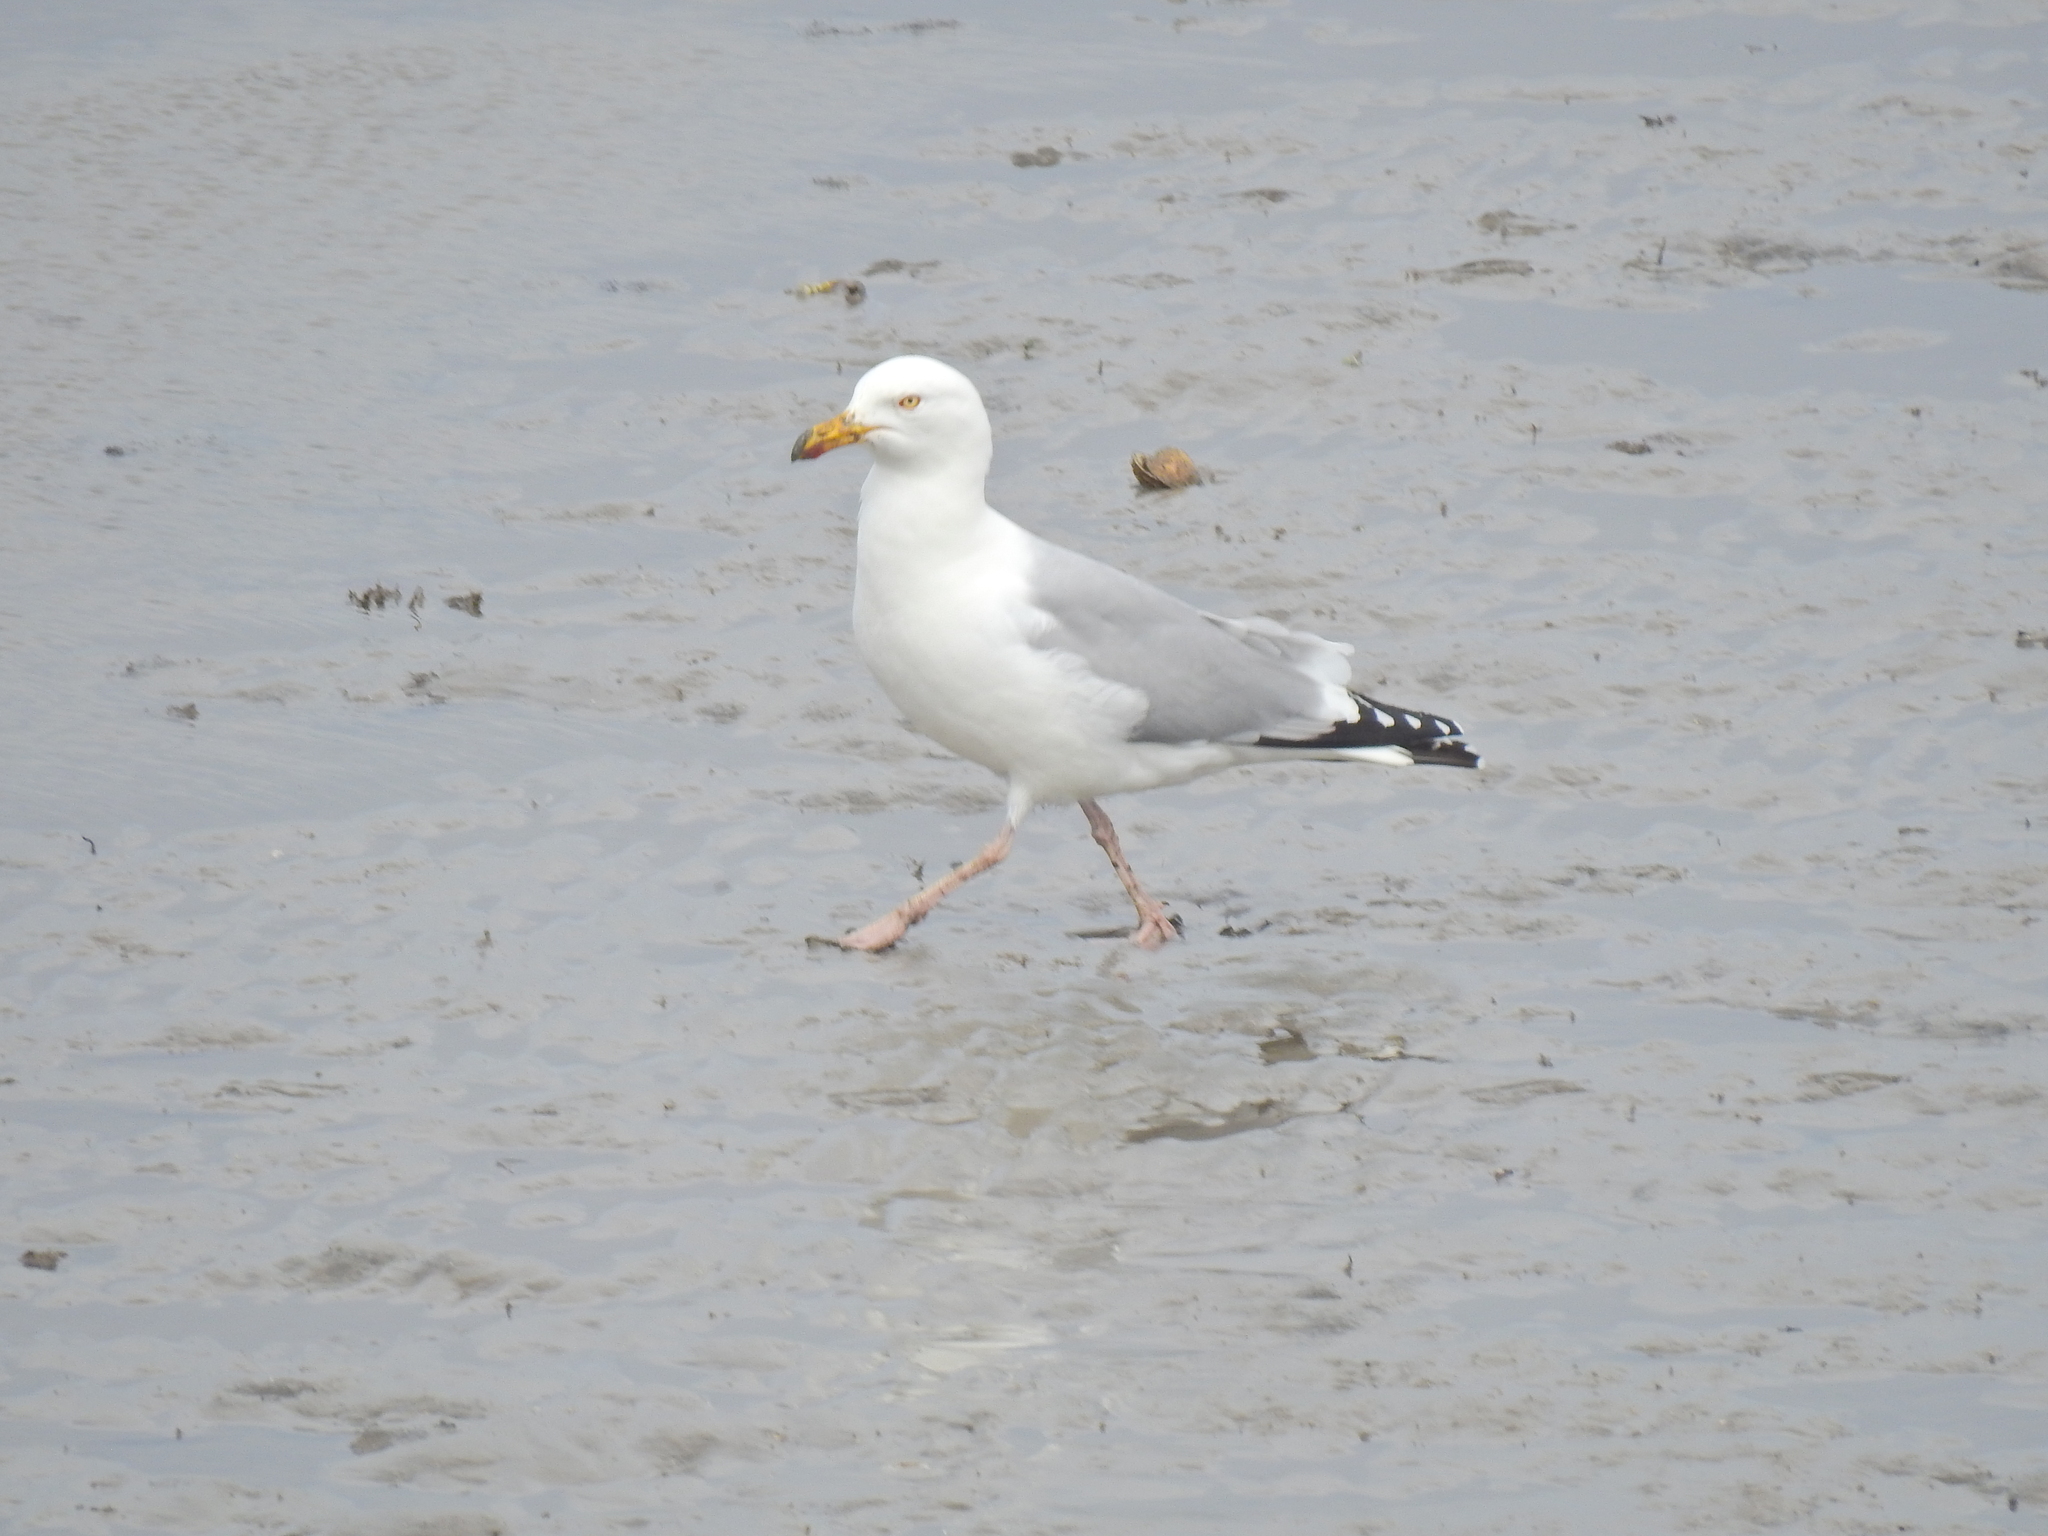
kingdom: Animalia
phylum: Chordata
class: Aves
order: Charadriiformes
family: Laridae
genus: Larus
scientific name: Larus argentatus
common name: Herring gull
